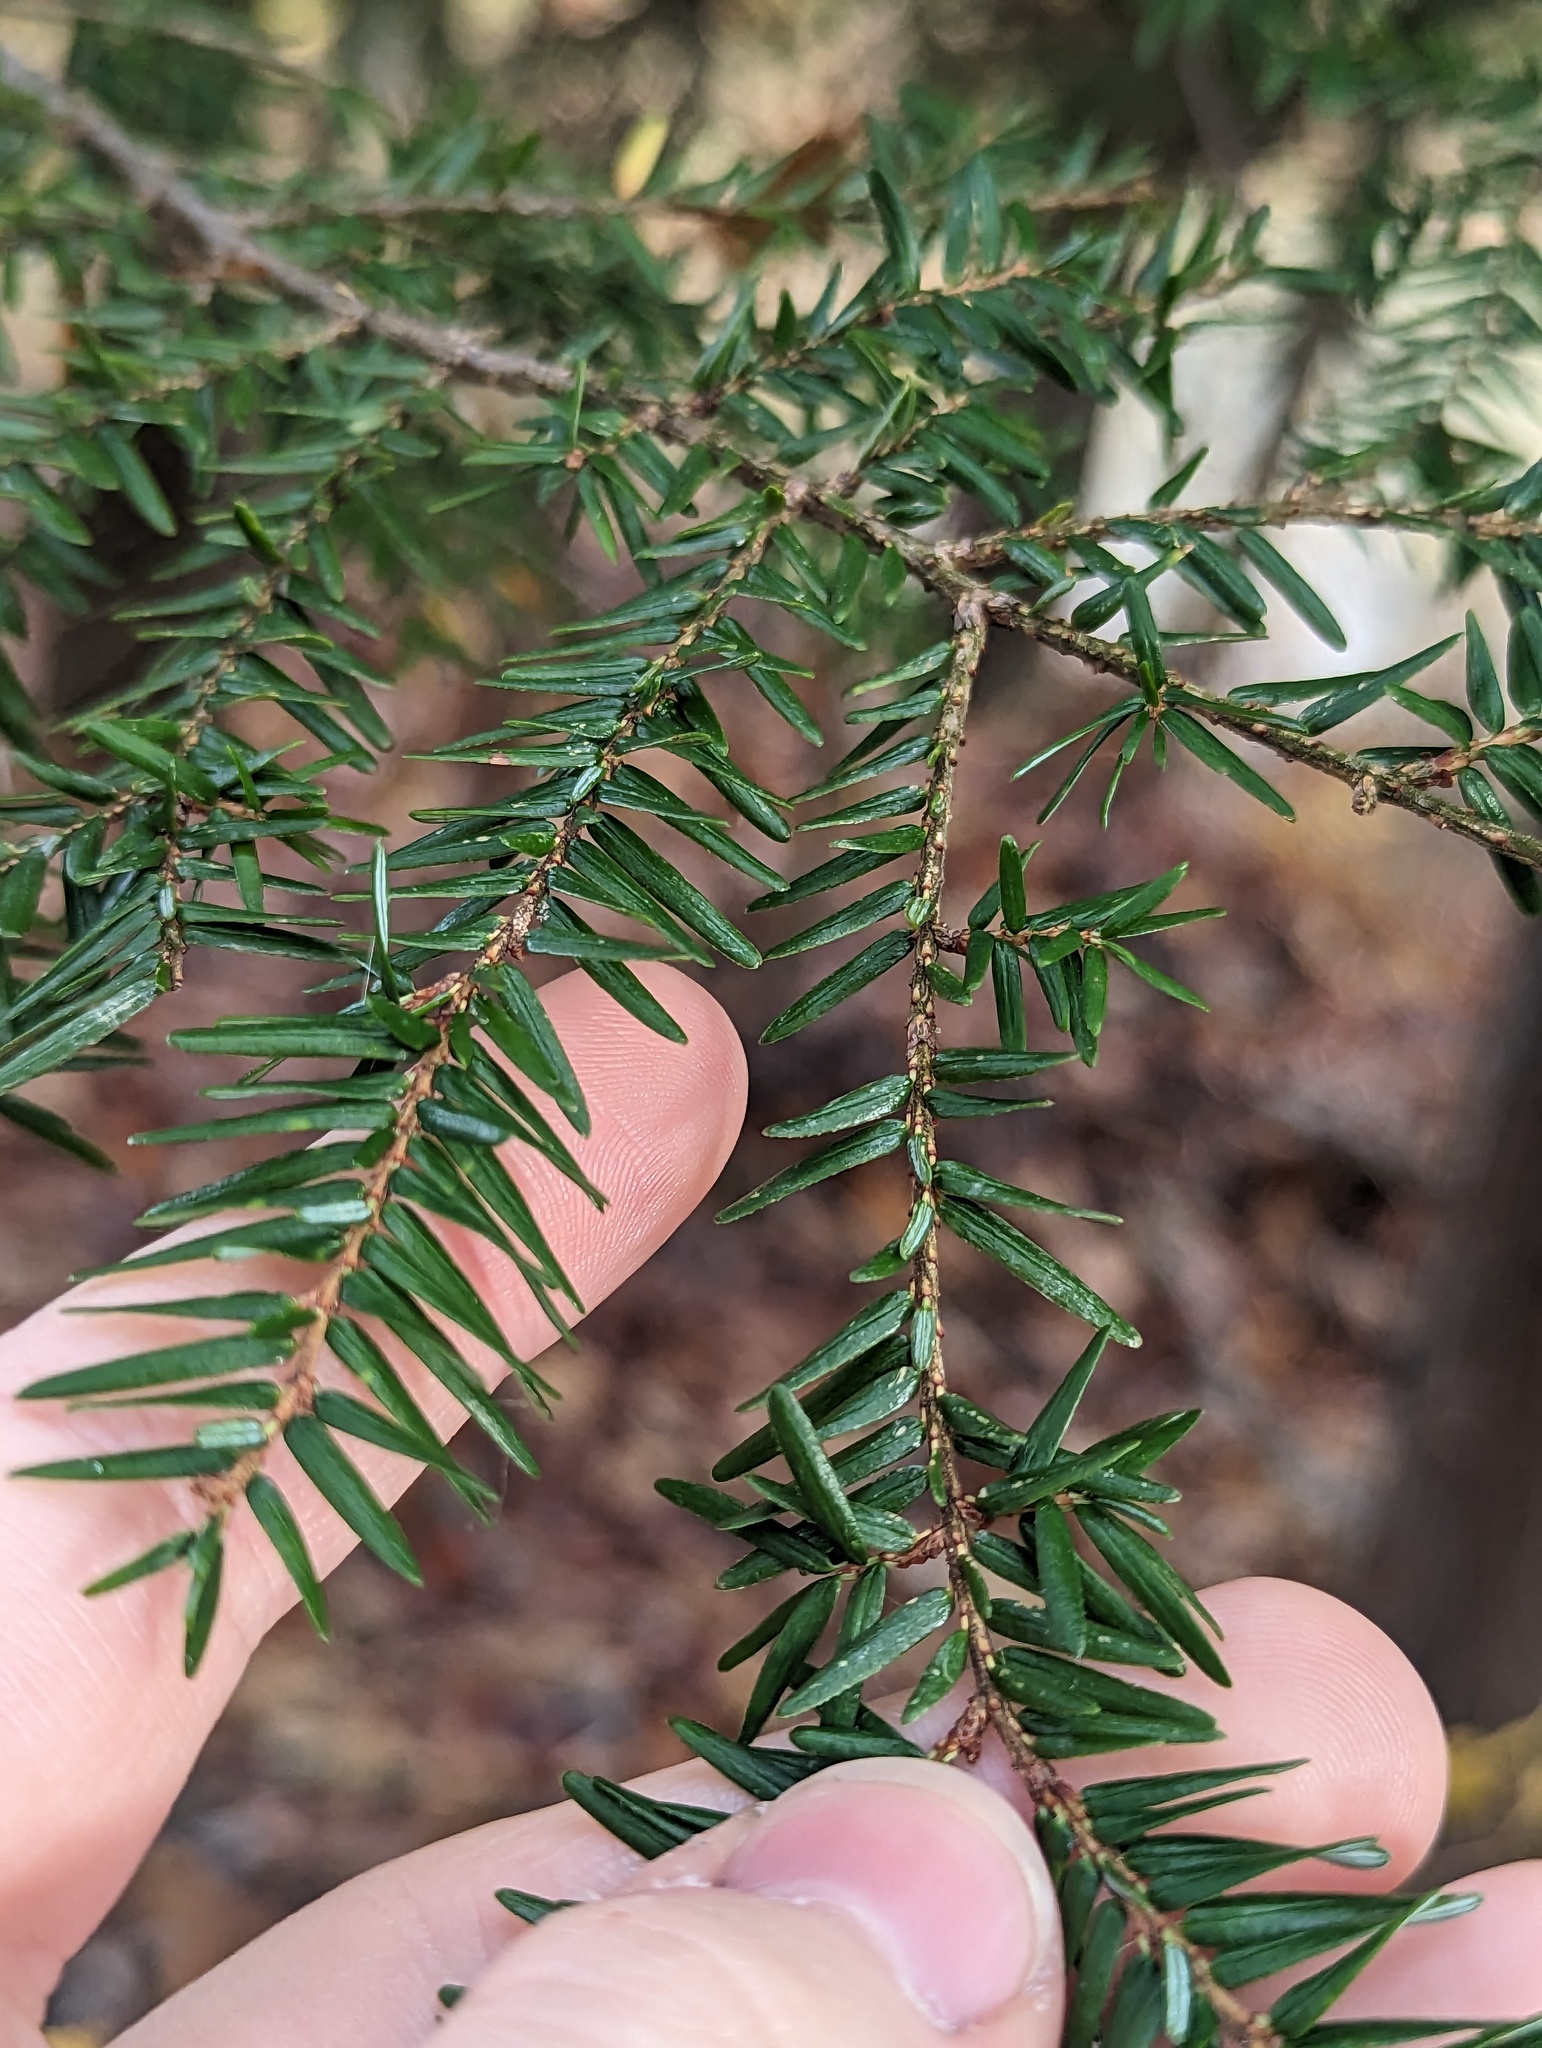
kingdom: Plantae
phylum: Tracheophyta
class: Pinopsida
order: Pinales
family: Pinaceae
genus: Tsuga
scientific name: Tsuga canadensis
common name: Eastern hemlock
